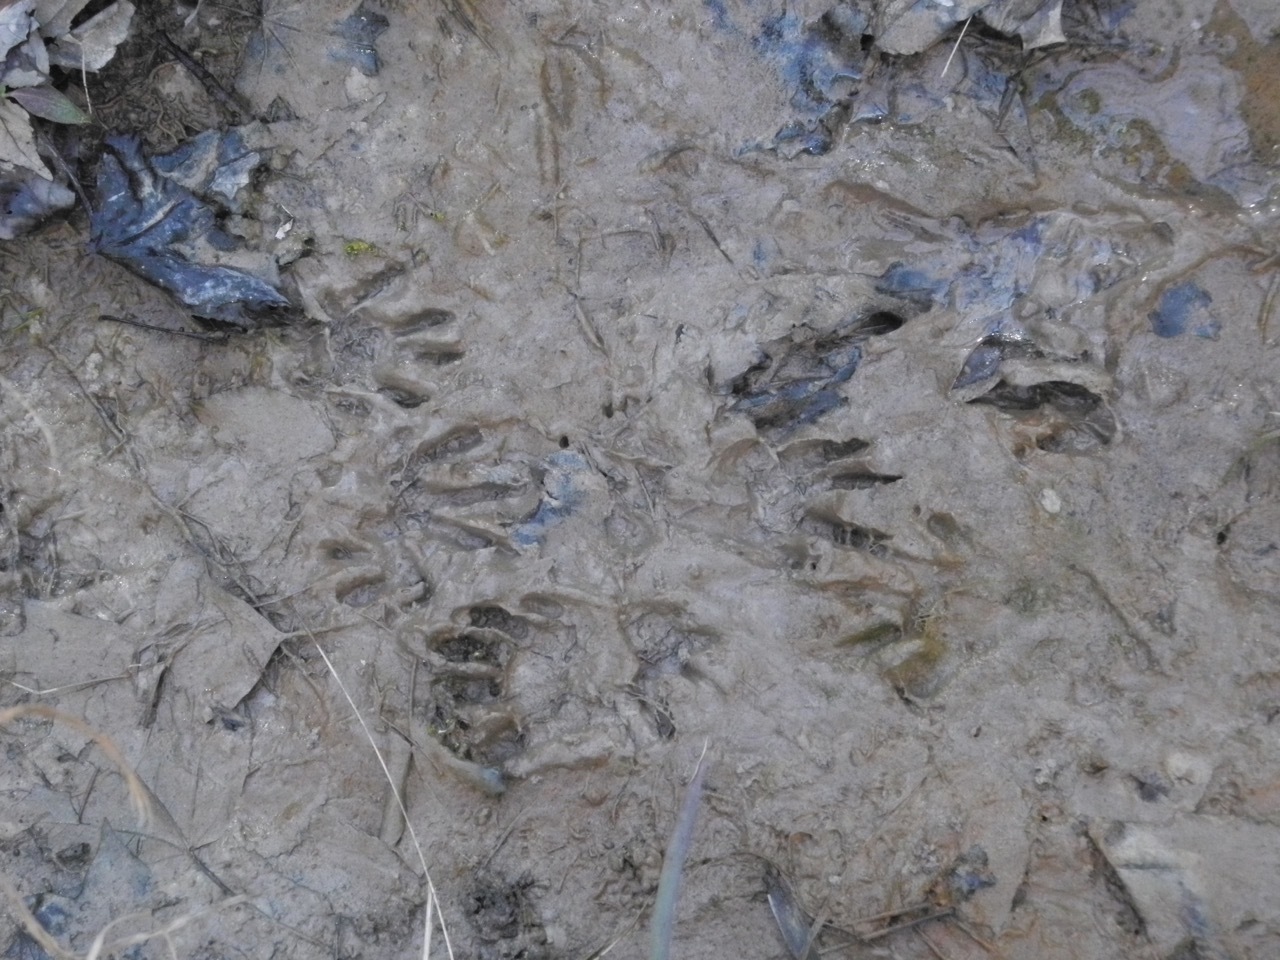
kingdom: Animalia
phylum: Chordata
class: Mammalia
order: Carnivora
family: Procyonidae
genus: Procyon
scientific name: Procyon lotor
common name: Raccoon
